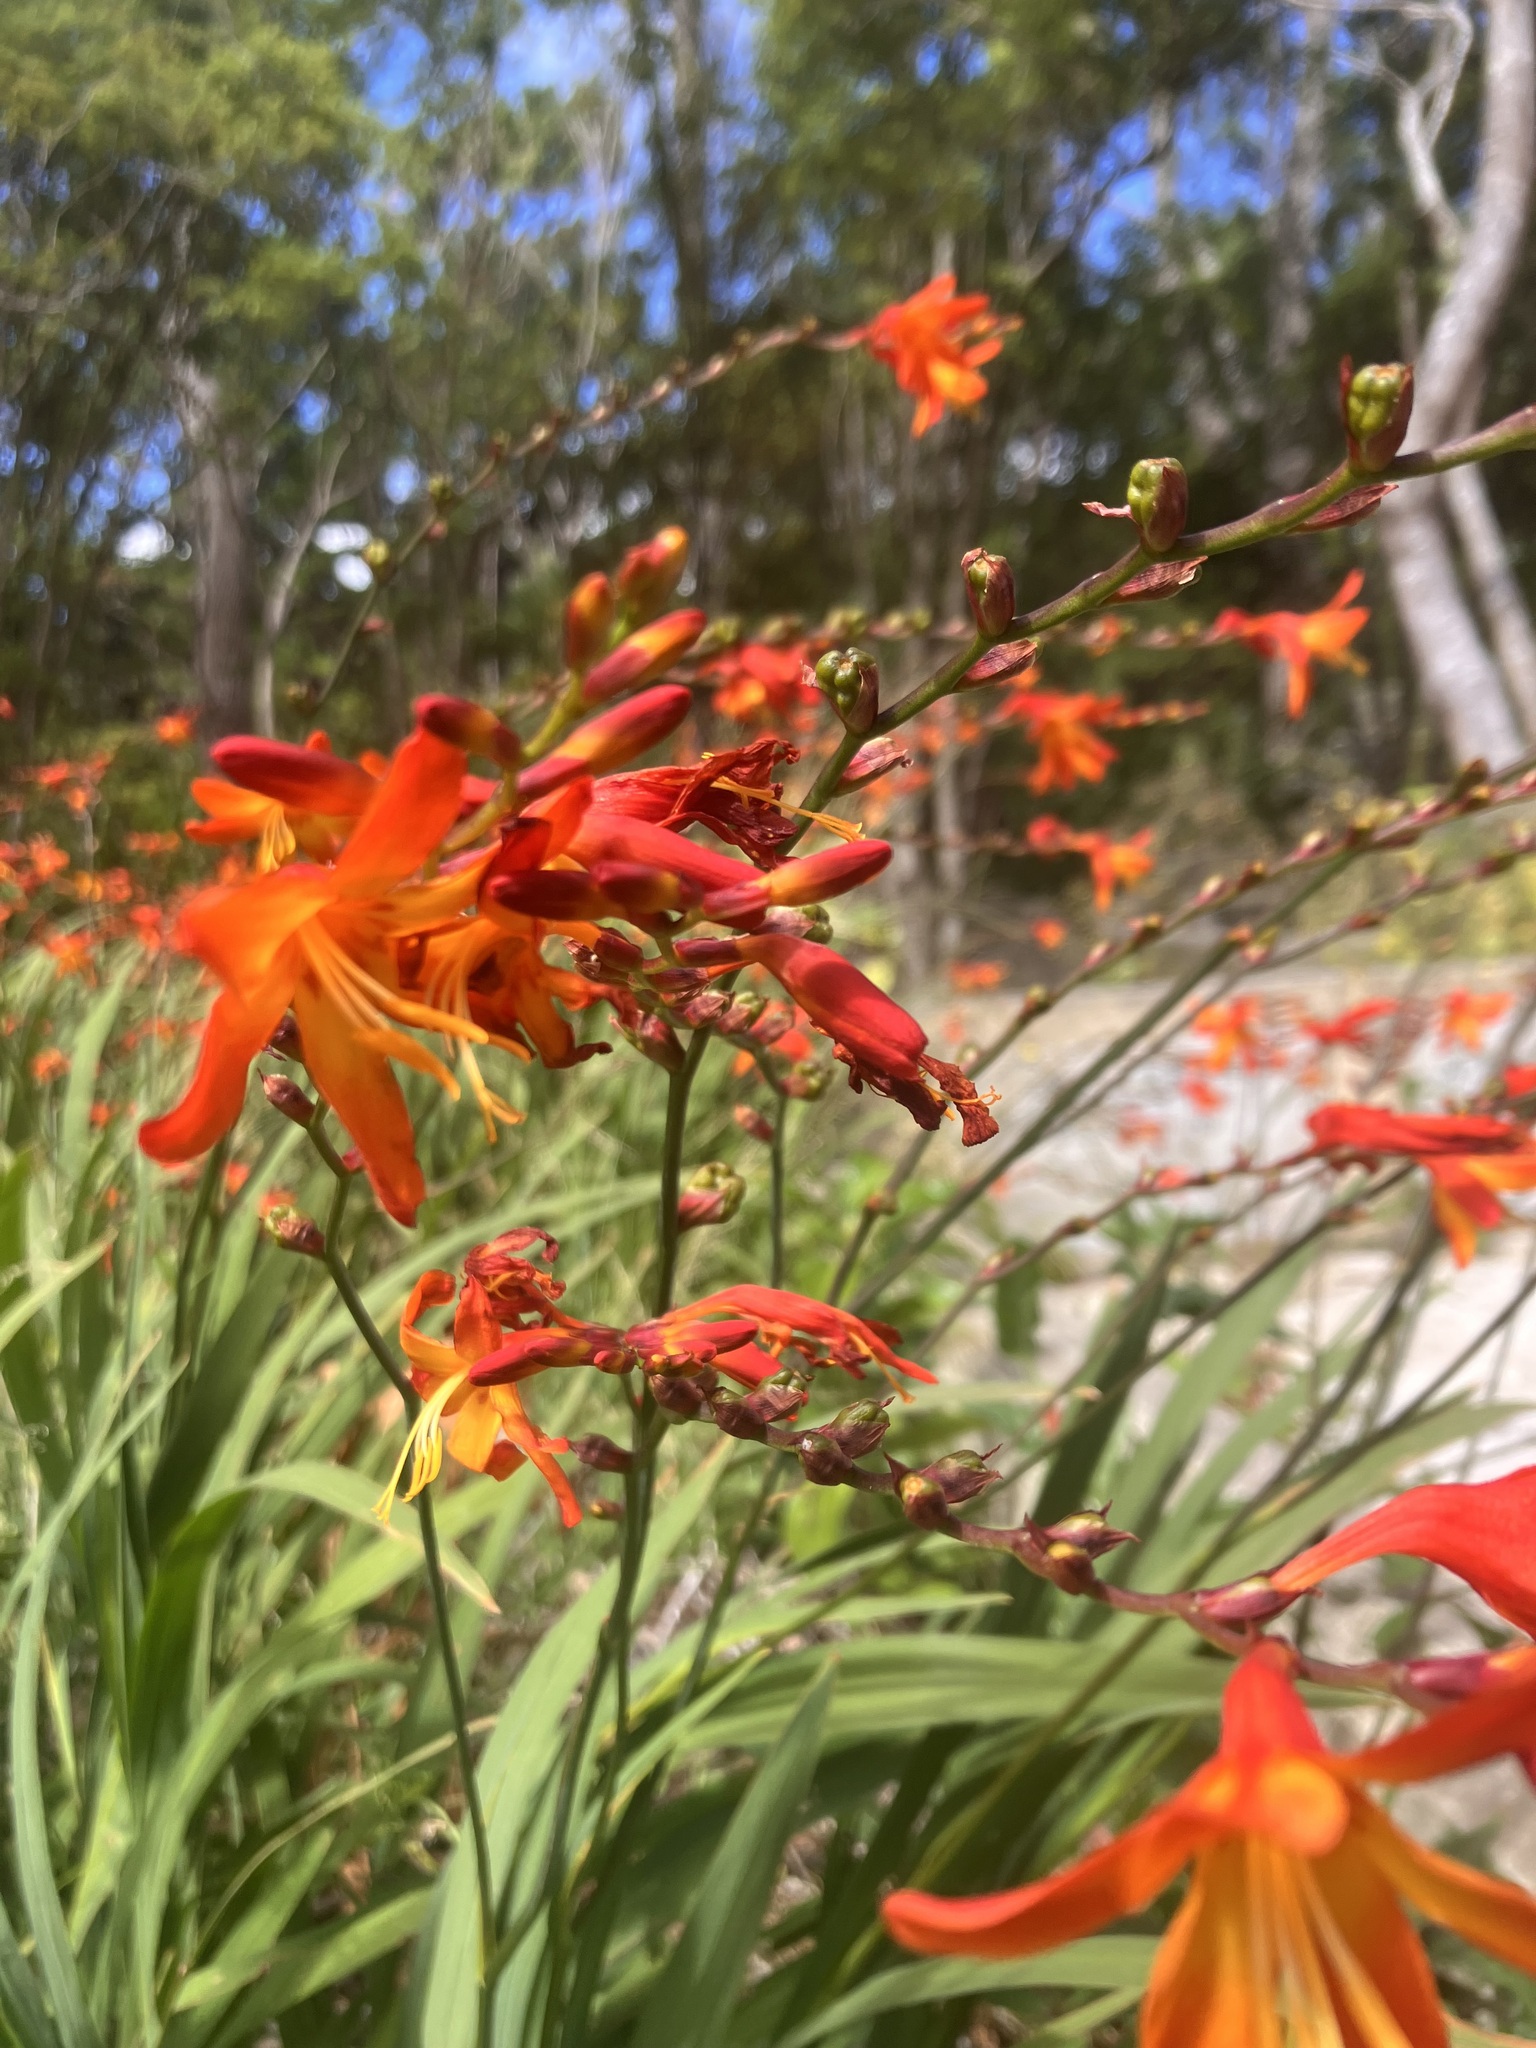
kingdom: Plantae
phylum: Tracheophyta
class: Liliopsida
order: Asparagales
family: Iridaceae
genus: Crocosmia
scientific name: Crocosmia crocosmiiflora
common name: Montbretia
